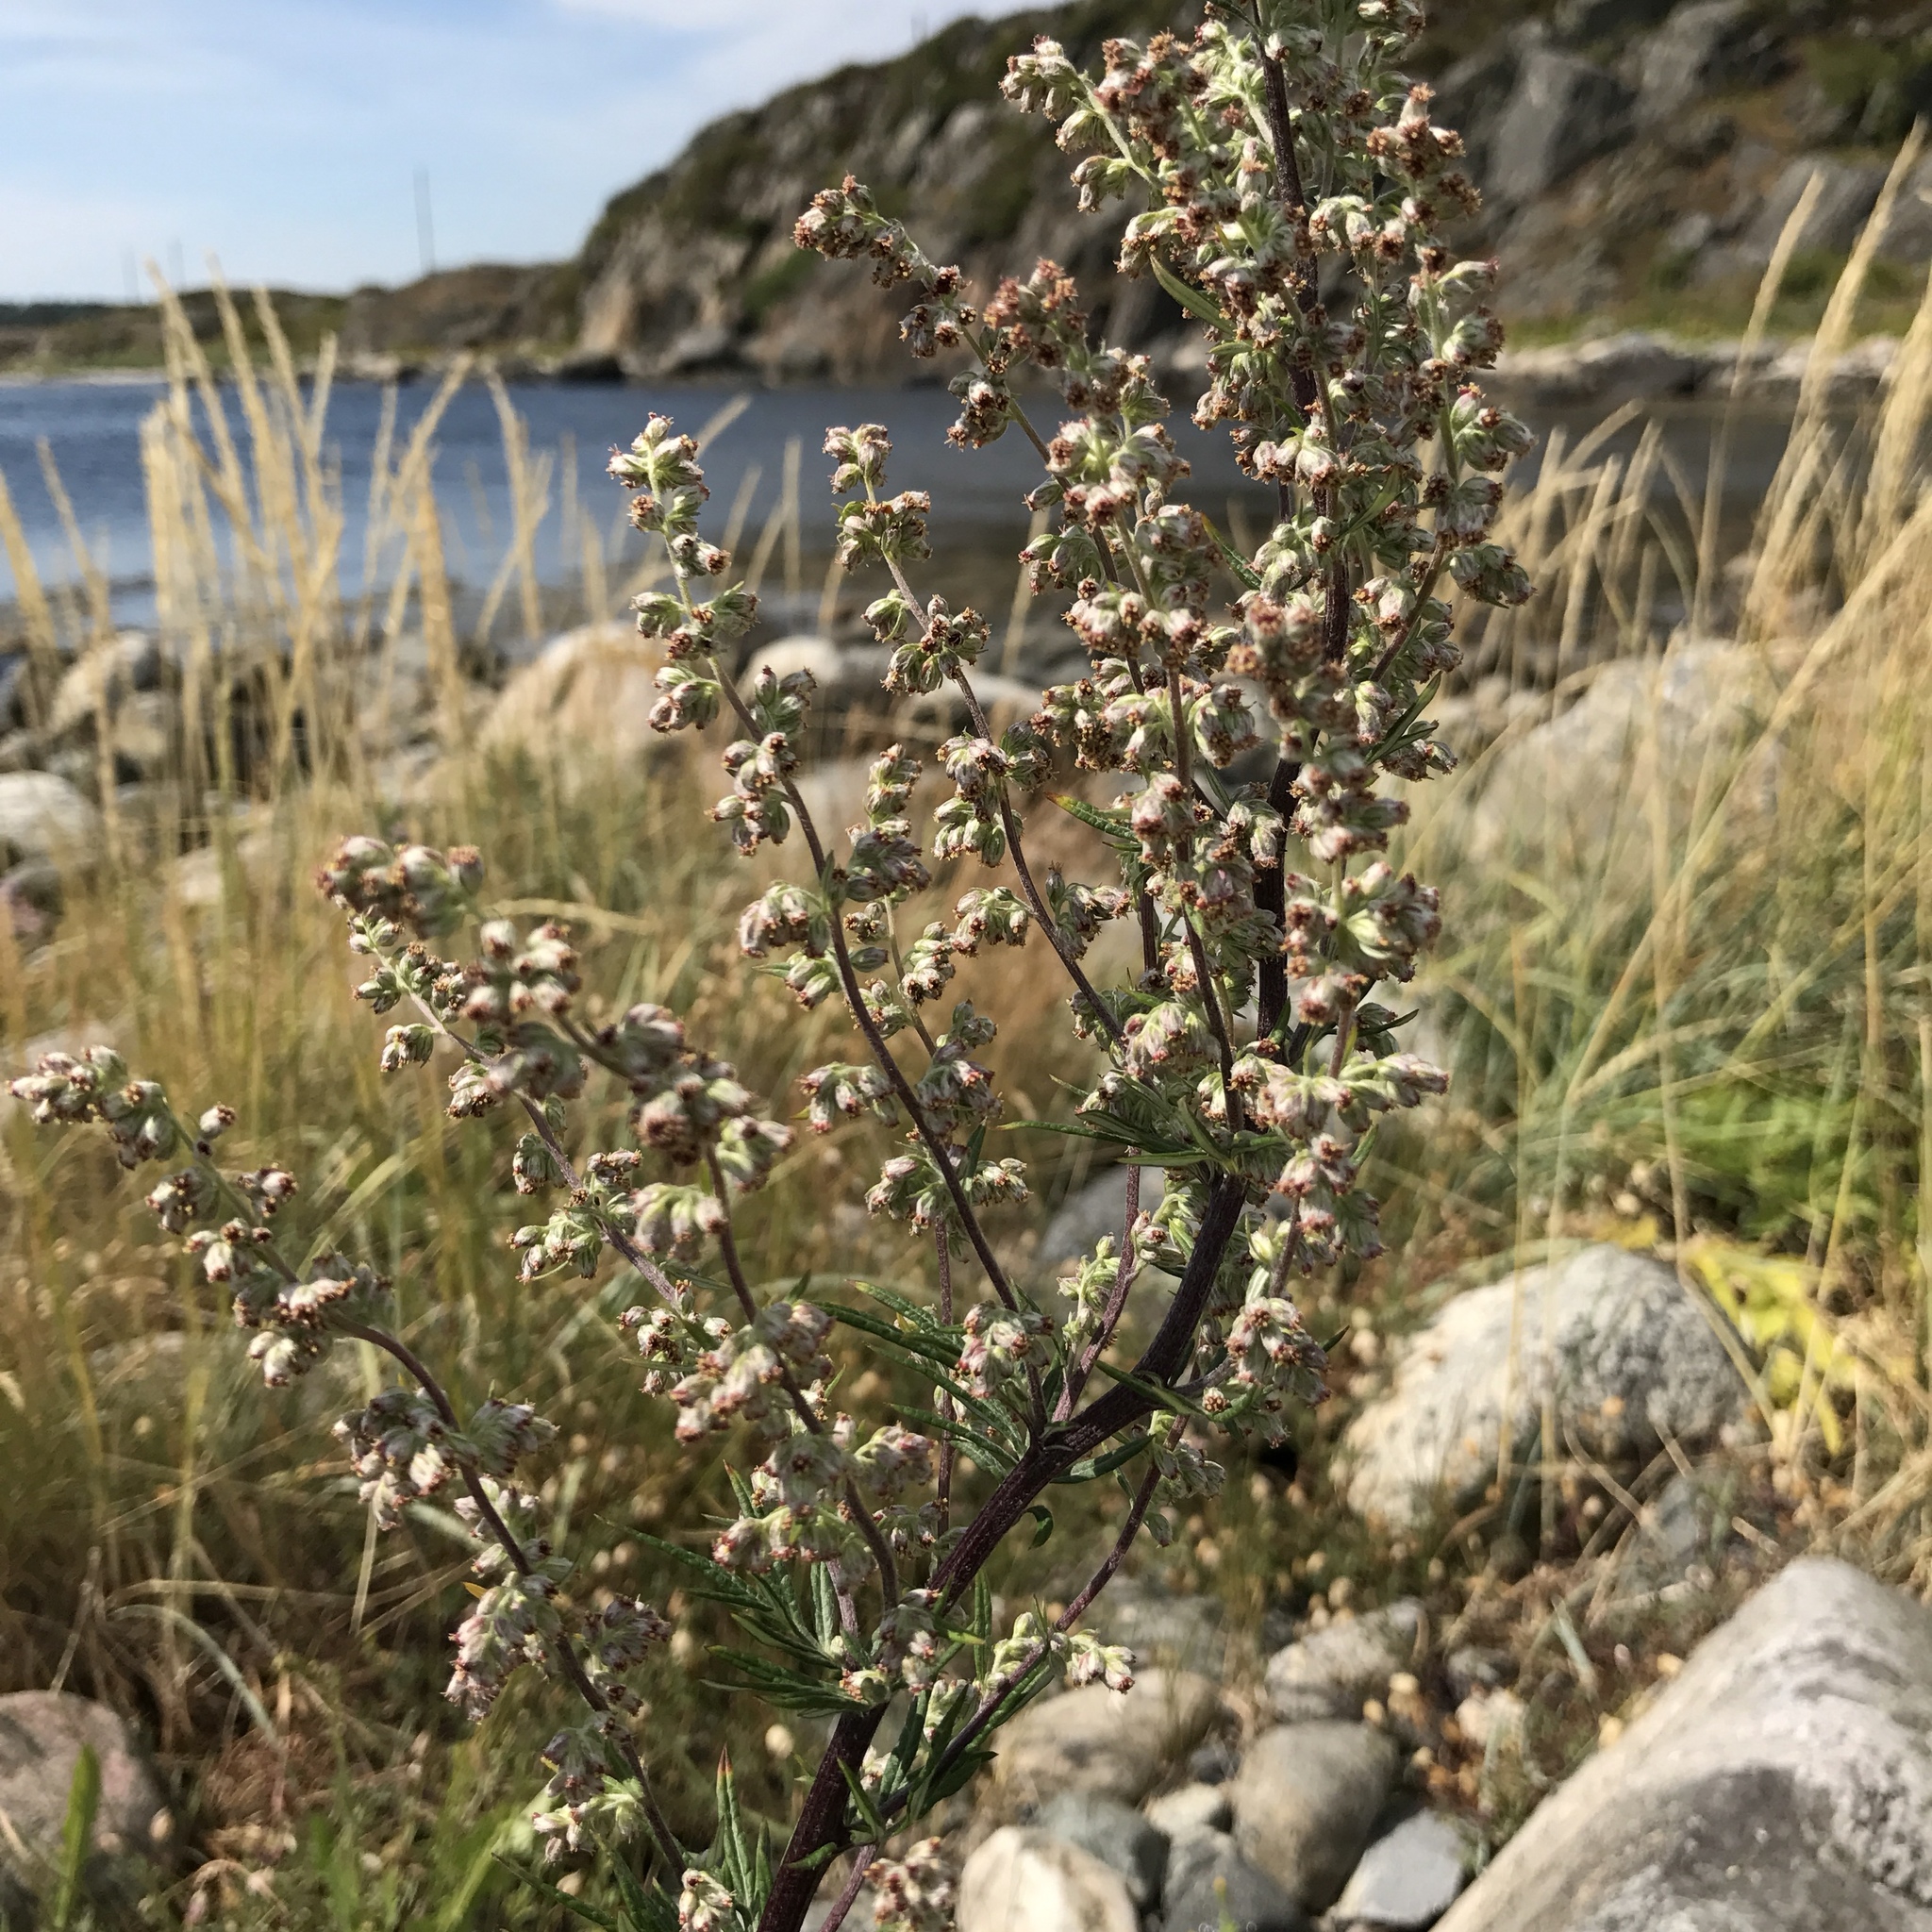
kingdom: Plantae
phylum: Tracheophyta
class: Magnoliopsida
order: Asterales
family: Asteraceae
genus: Artemisia
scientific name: Artemisia vulgaris
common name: Mugwort
